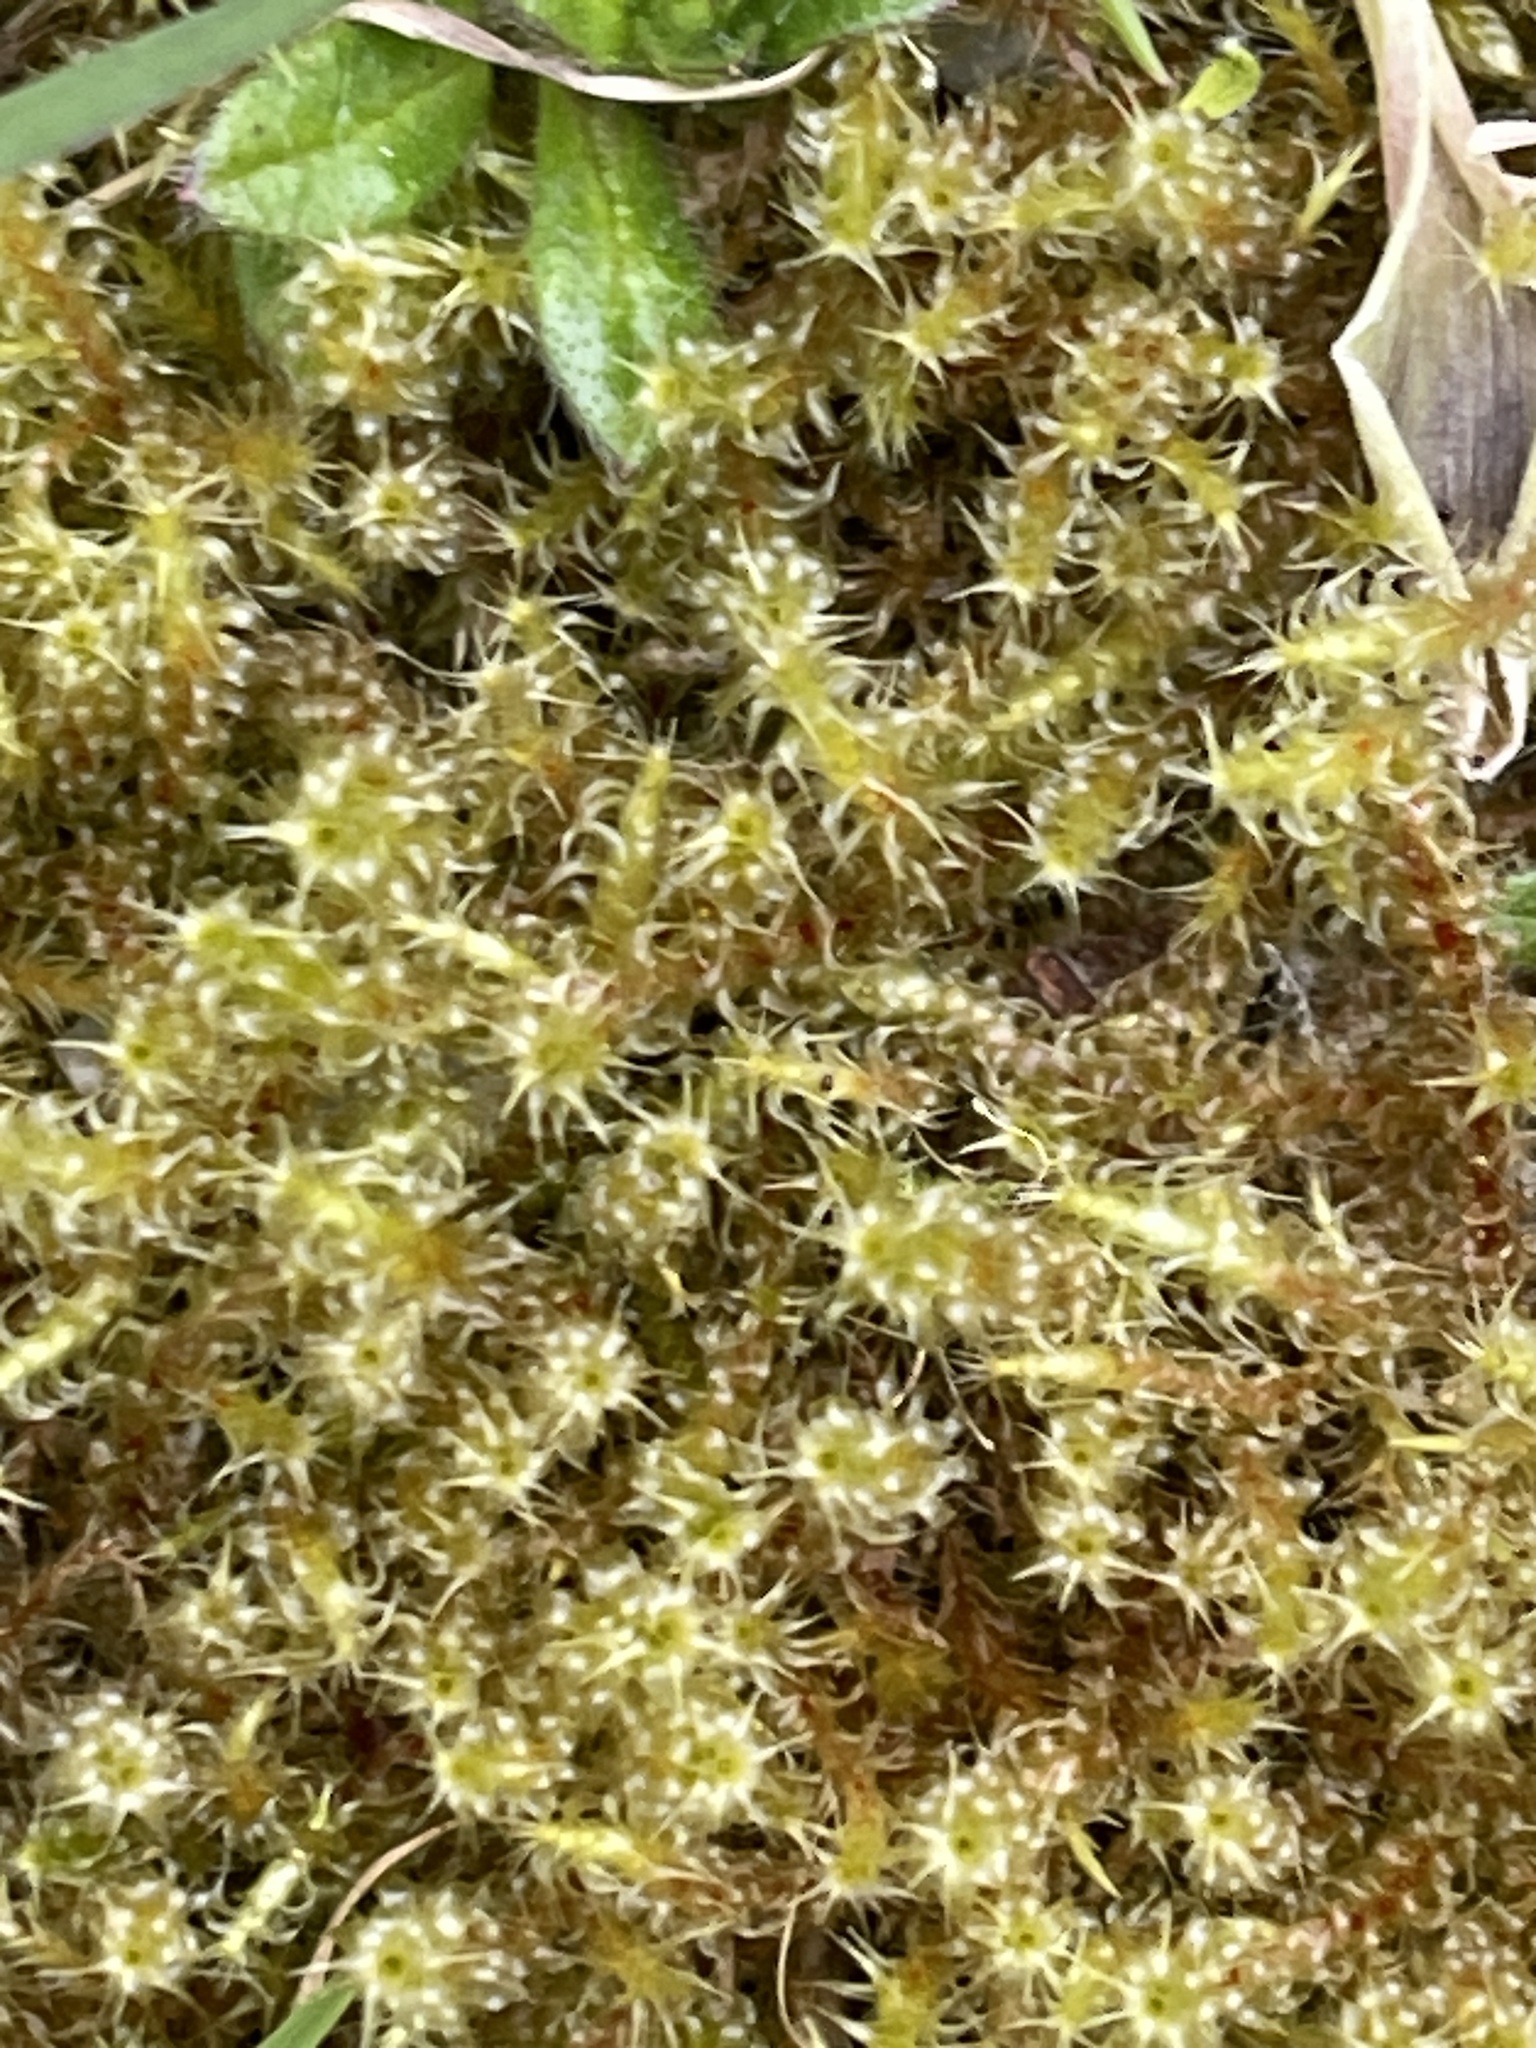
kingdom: Plantae
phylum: Bryophyta
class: Bryopsida
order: Hypnales
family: Hylocomiaceae
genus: Rhytidiadelphus
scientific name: Rhytidiadelphus squarrosus
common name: Springy turf-moss
